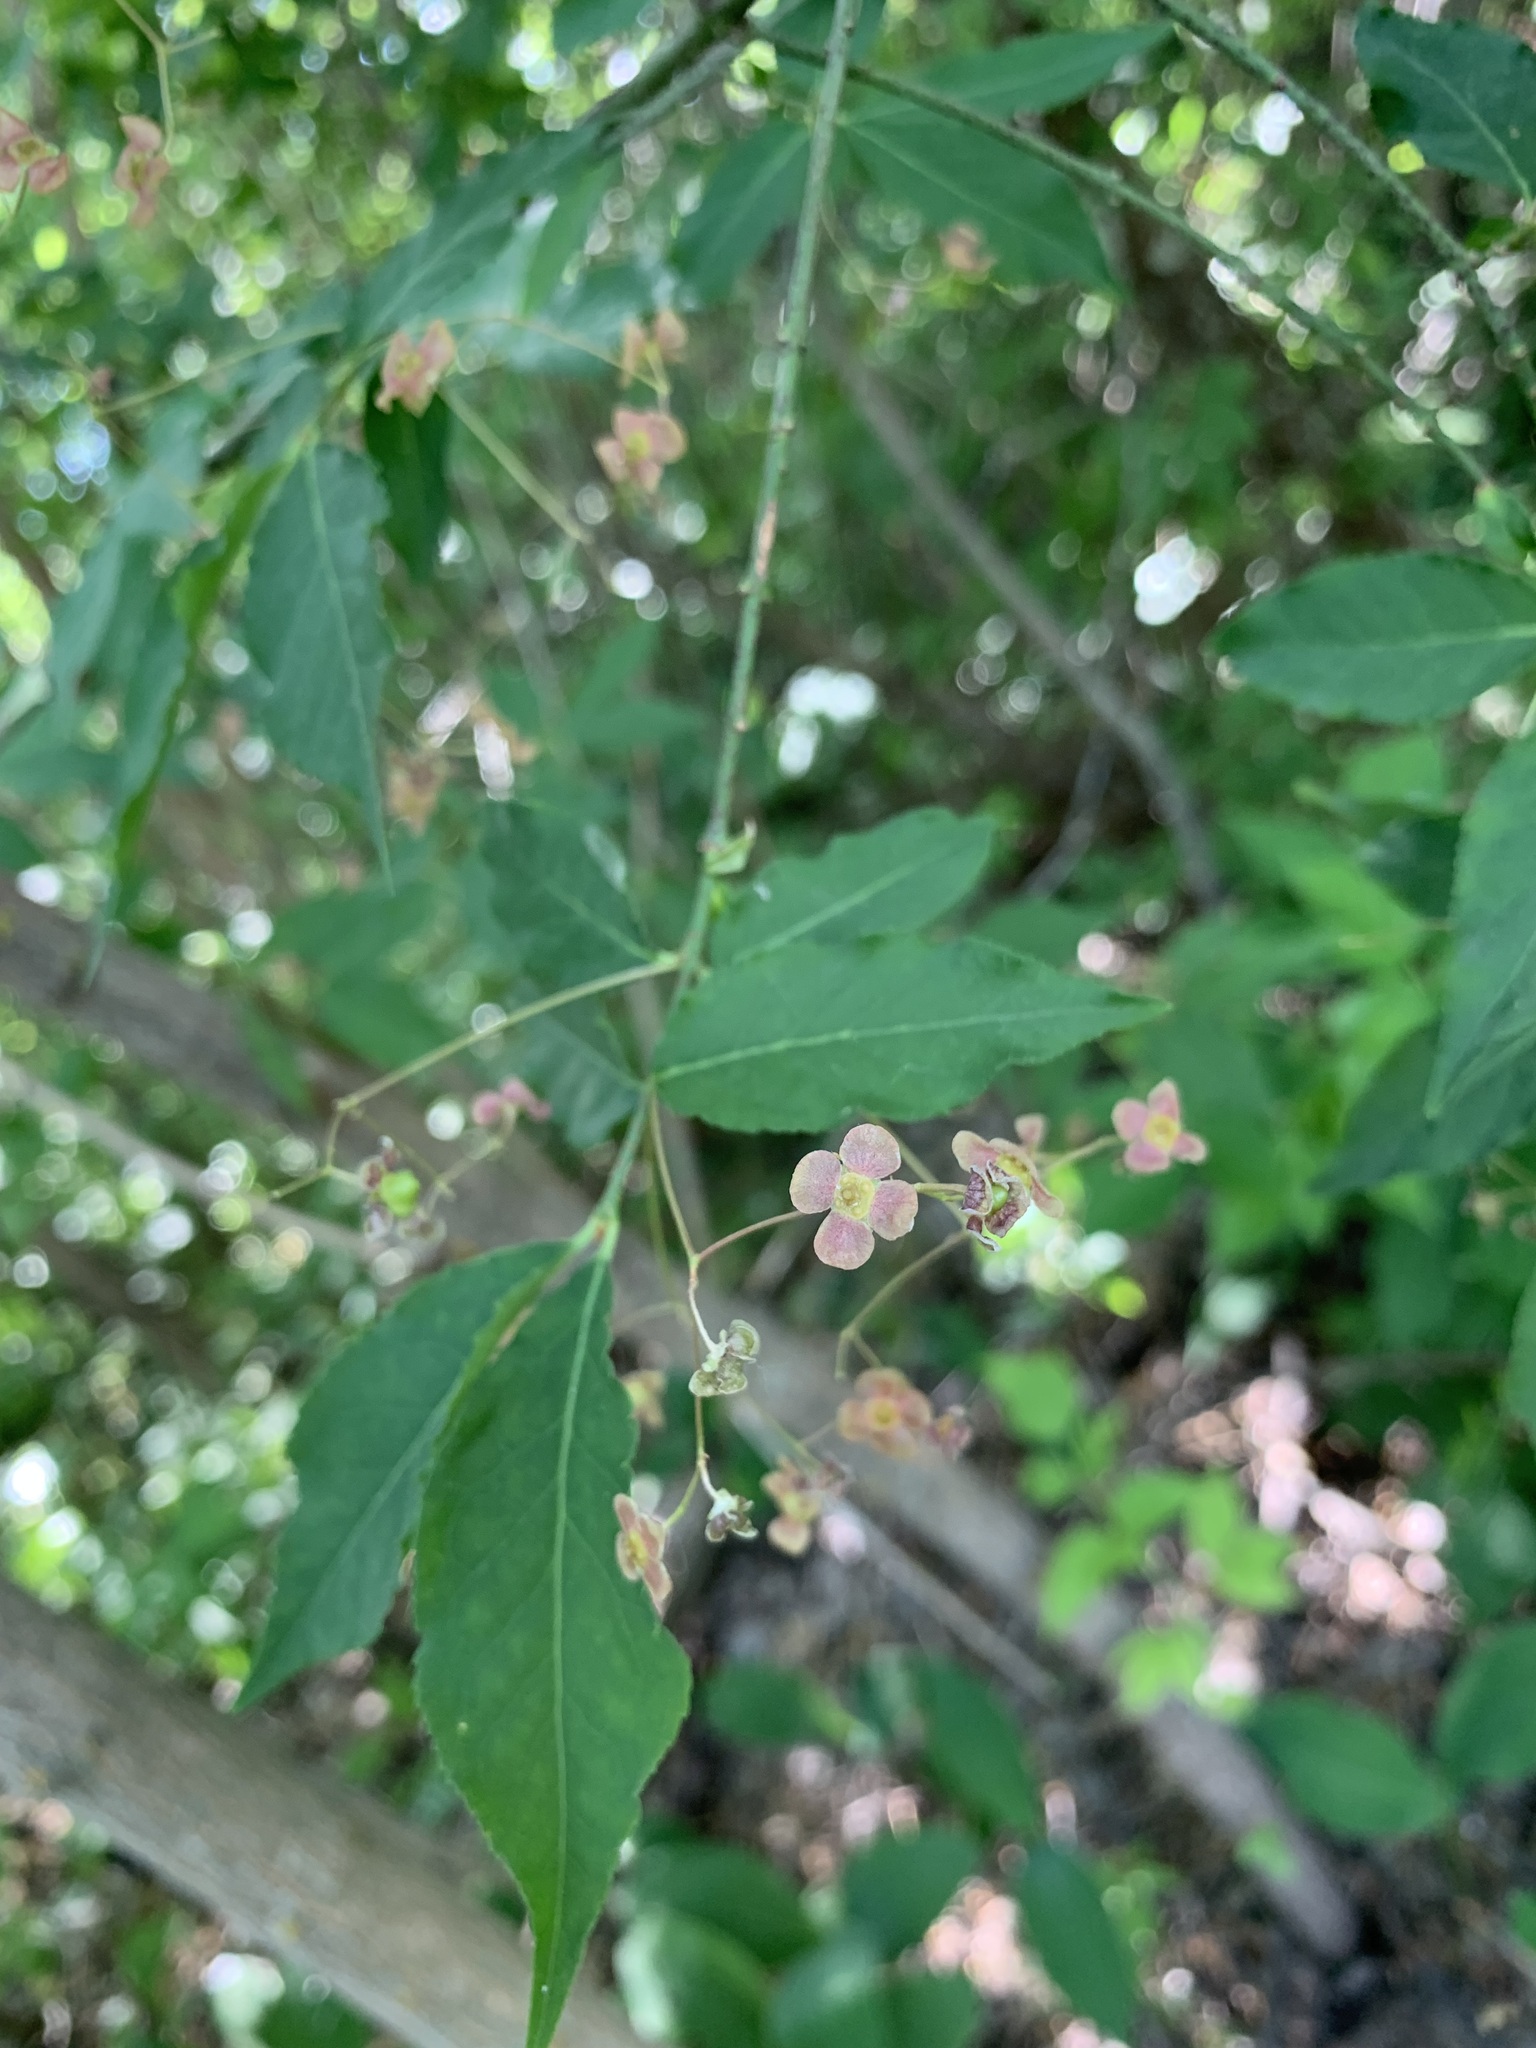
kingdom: Plantae
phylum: Tracheophyta
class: Magnoliopsida
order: Celastrales
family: Celastraceae
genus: Euonymus
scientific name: Euonymus verrucosus
